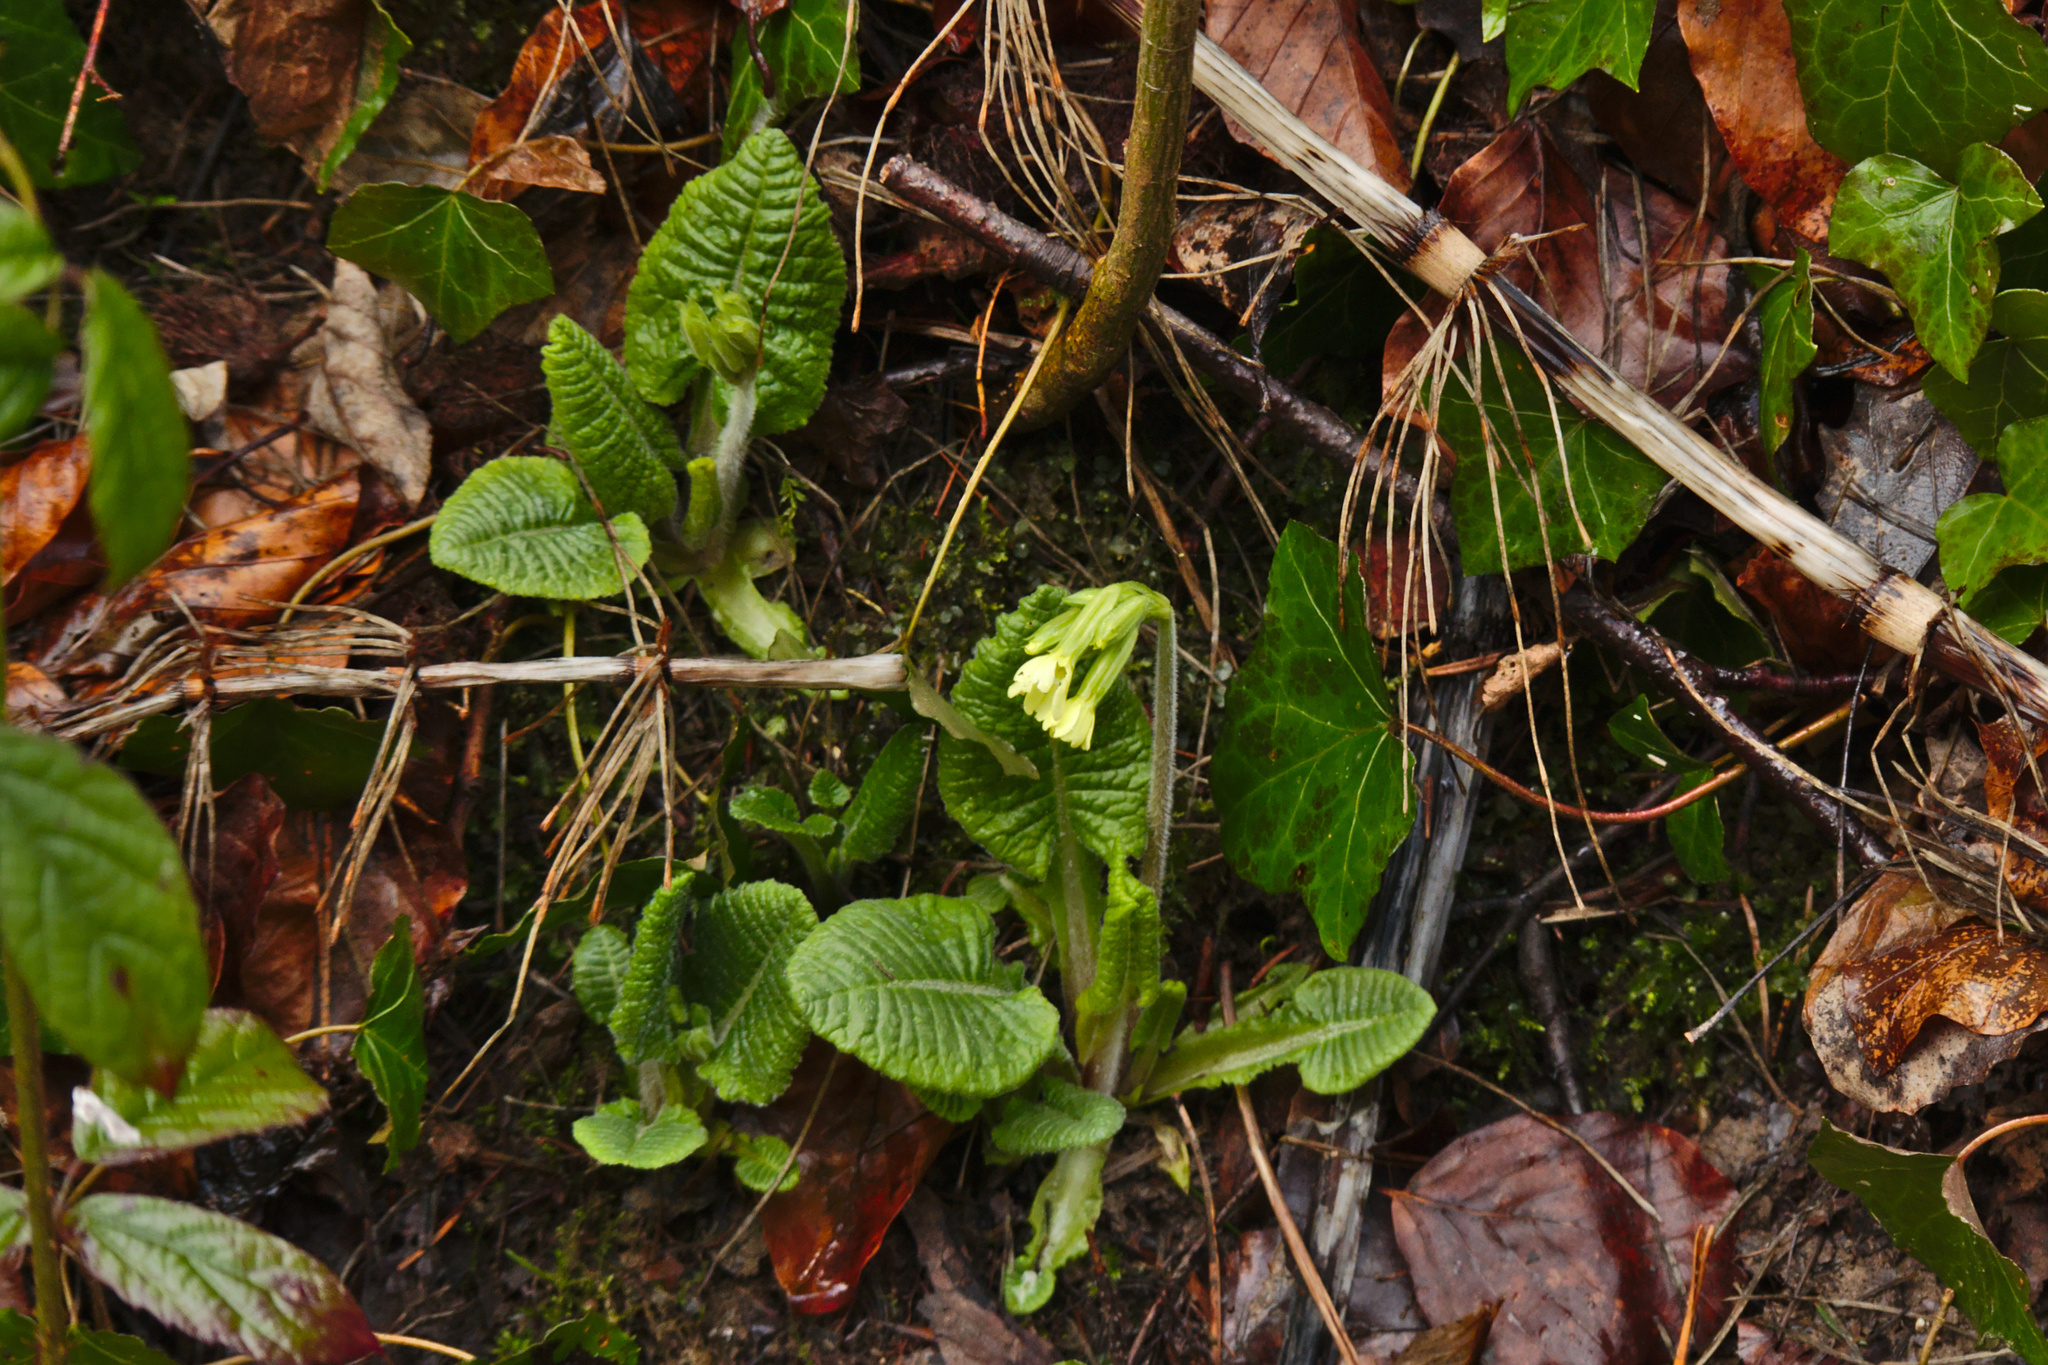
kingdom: Plantae
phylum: Tracheophyta
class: Magnoliopsida
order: Ericales
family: Primulaceae
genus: Primula
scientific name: Primula elatior
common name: Oxlip
